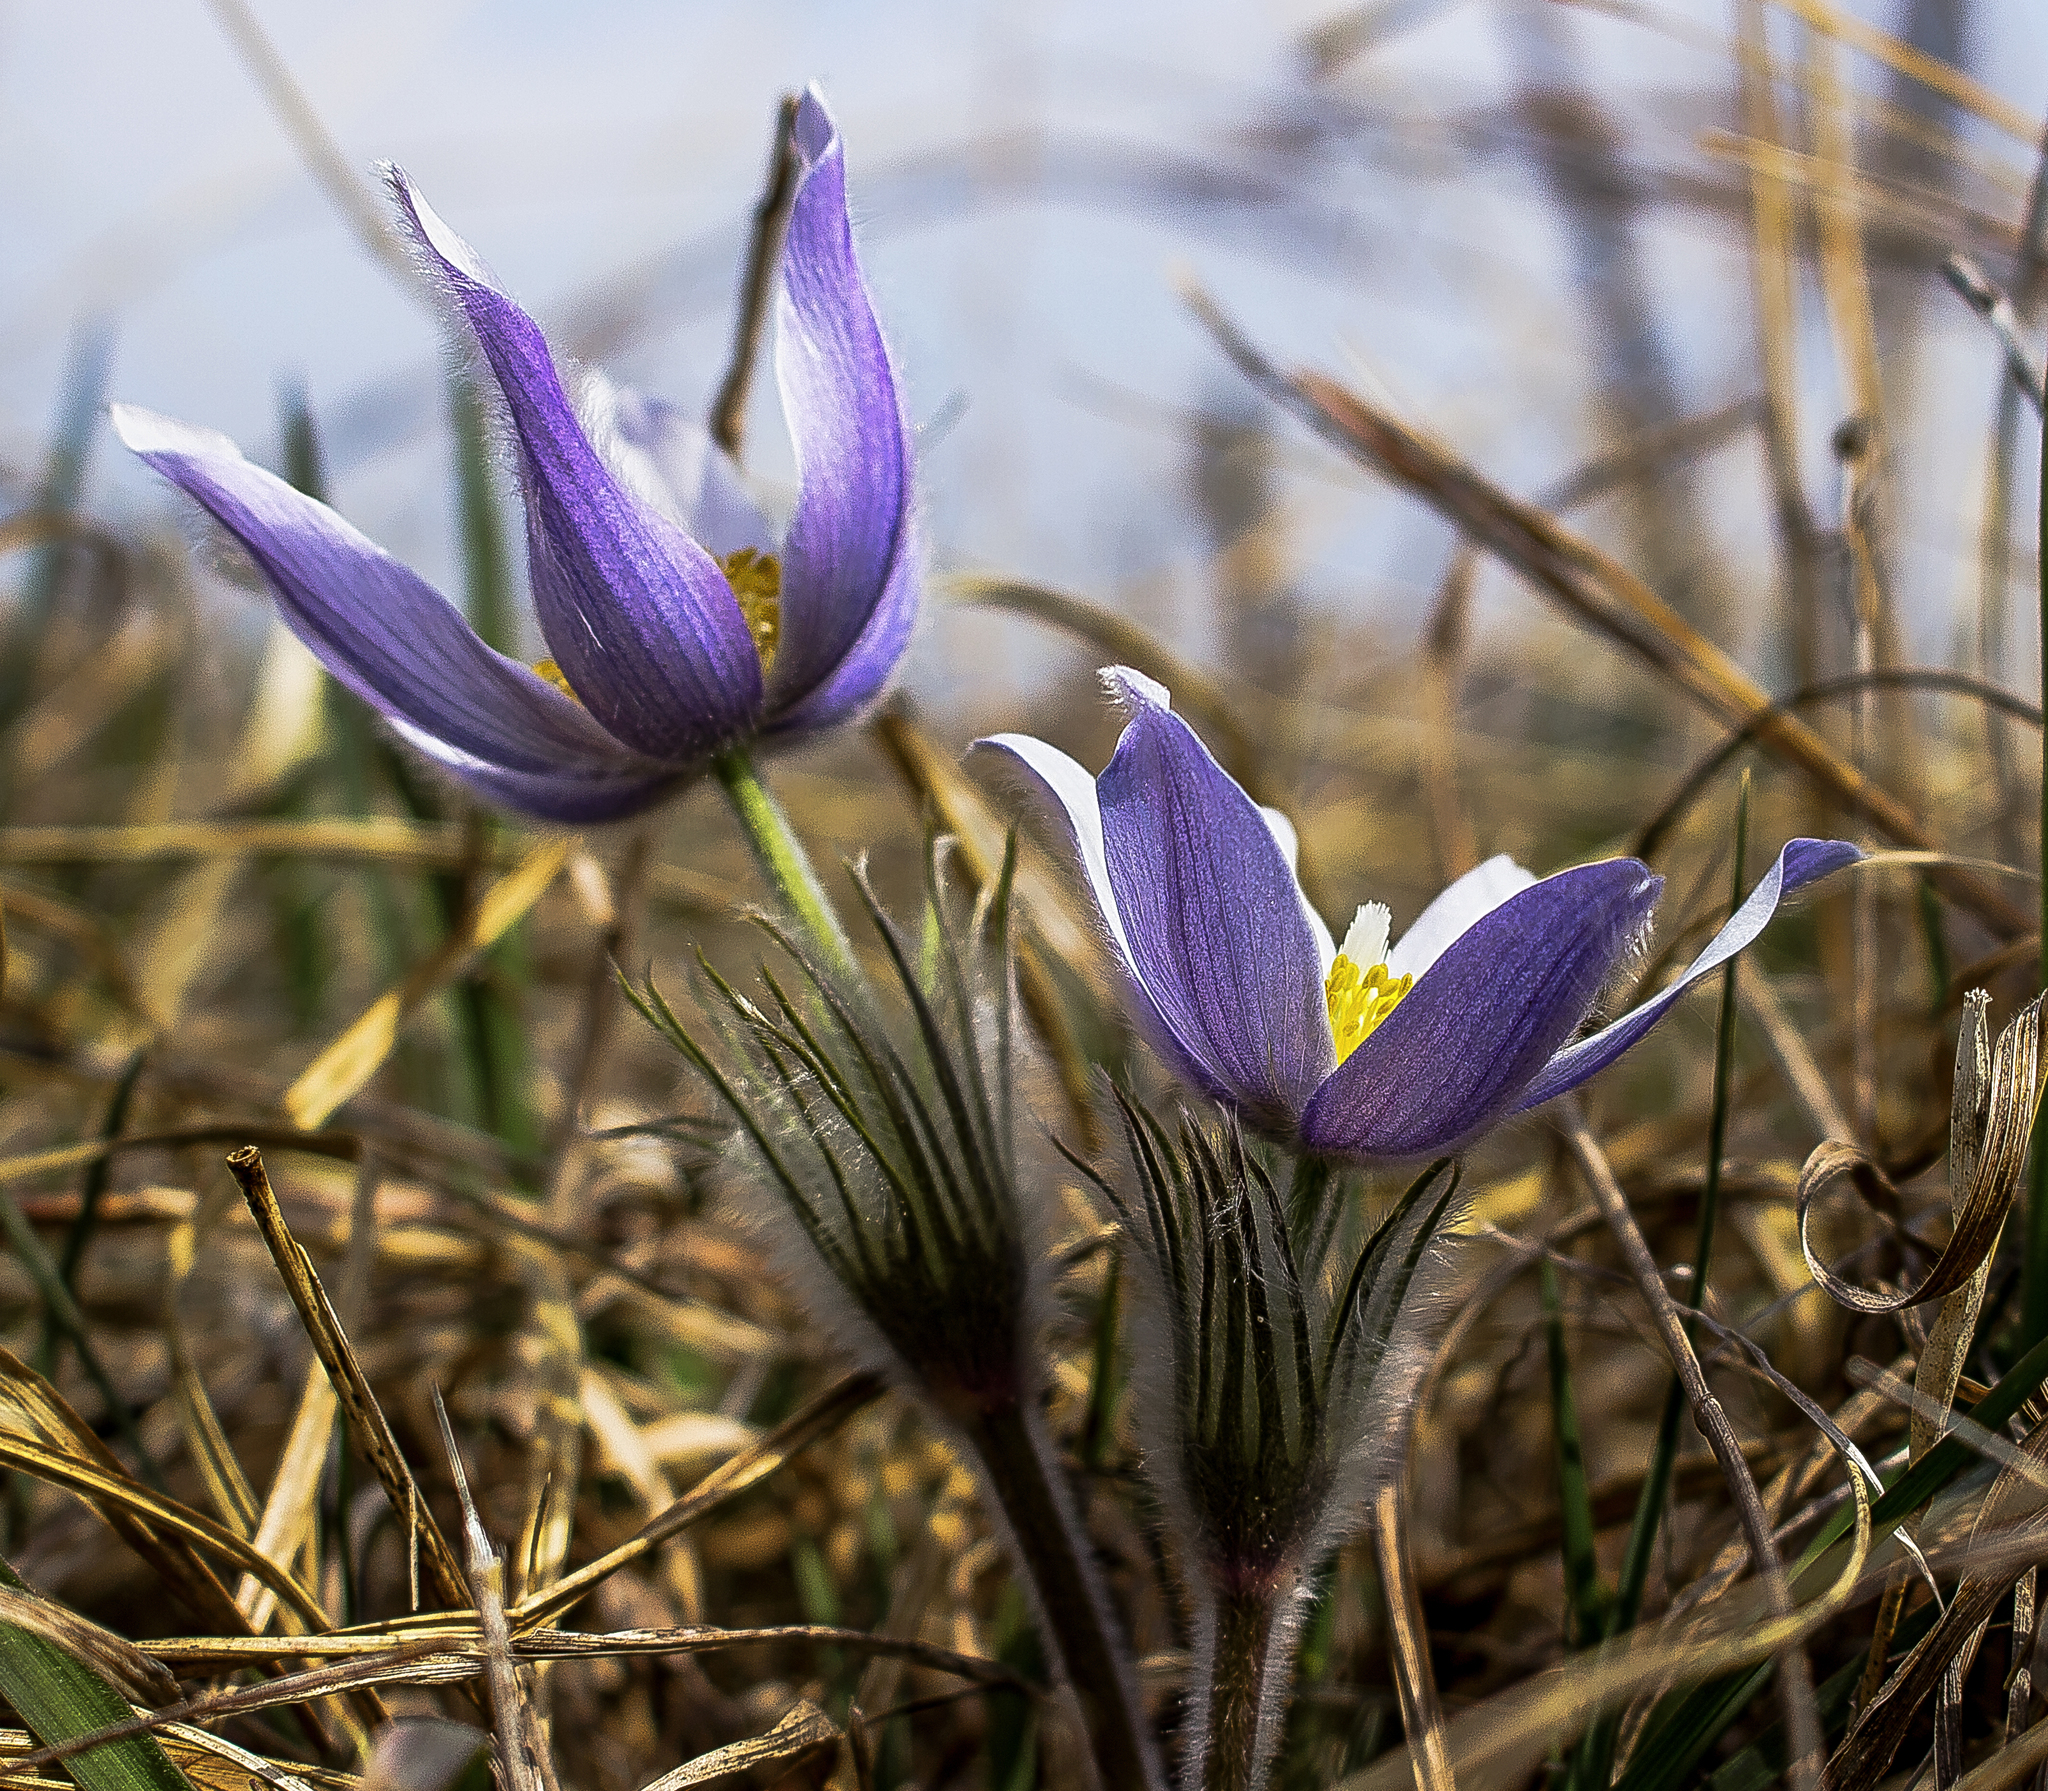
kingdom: Plantae
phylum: Tracheophyta
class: Magnoliopsida
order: Ranunculales
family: Ranunculaceae
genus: Pulsatilla
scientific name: Pulsatilla nuttalliana
